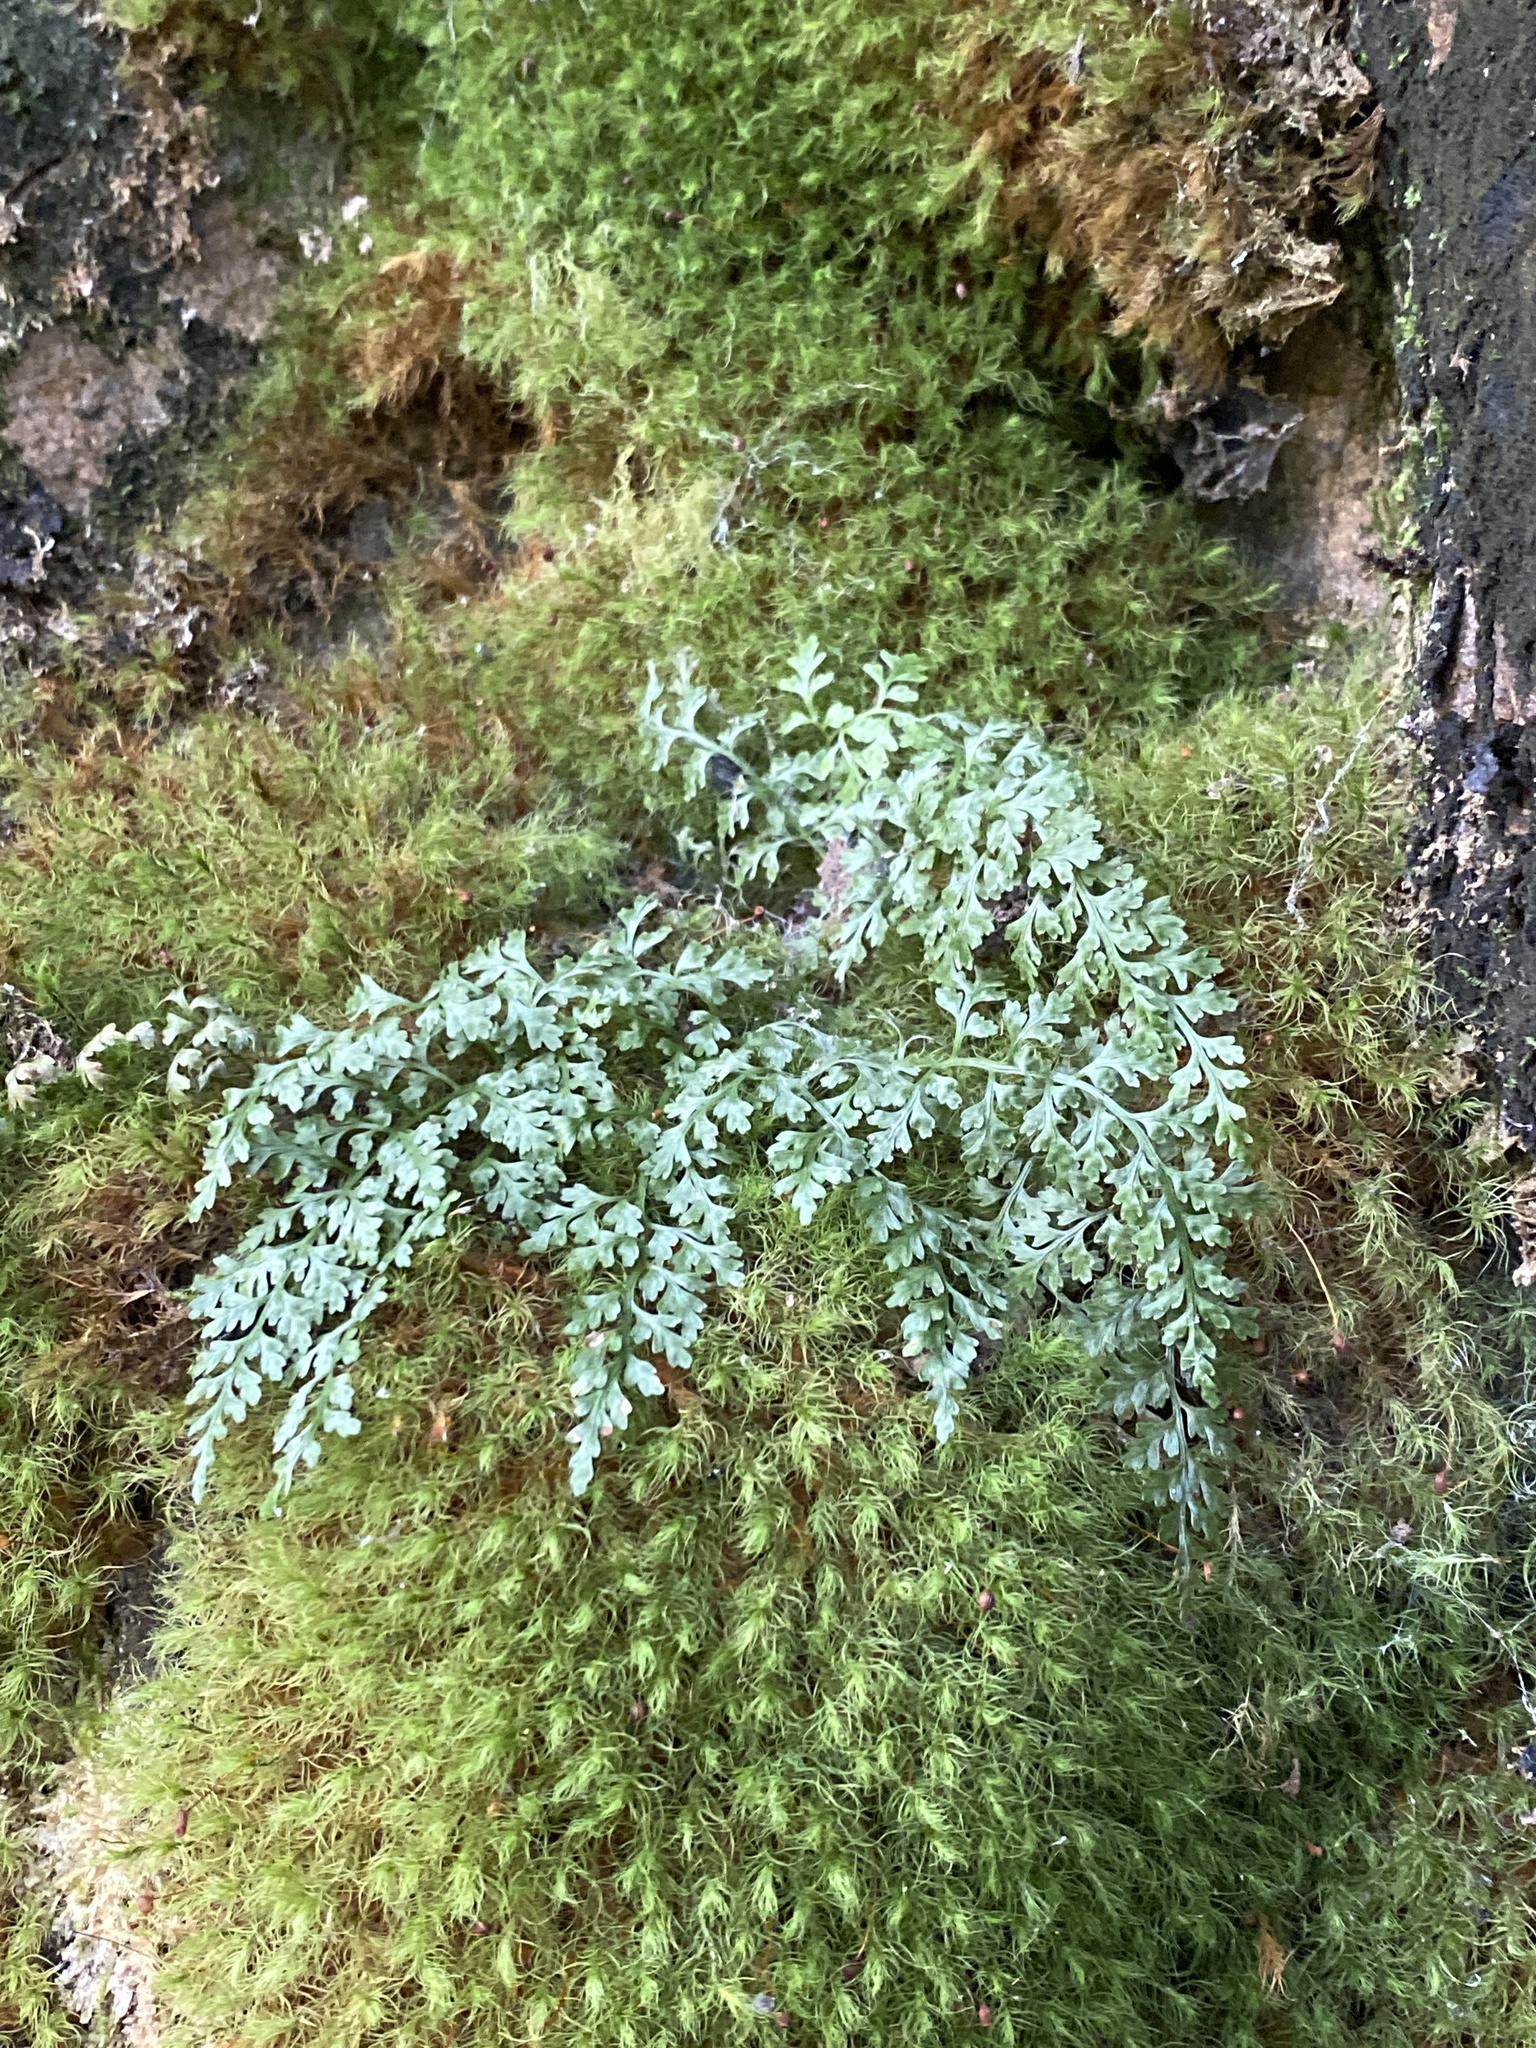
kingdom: Plantae
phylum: Tracheophyta
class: Polypodiopsida
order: Polypodiales
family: Aspleniaceae
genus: Asplenium
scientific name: Asplenium montanum
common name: Mountain spleenwort
